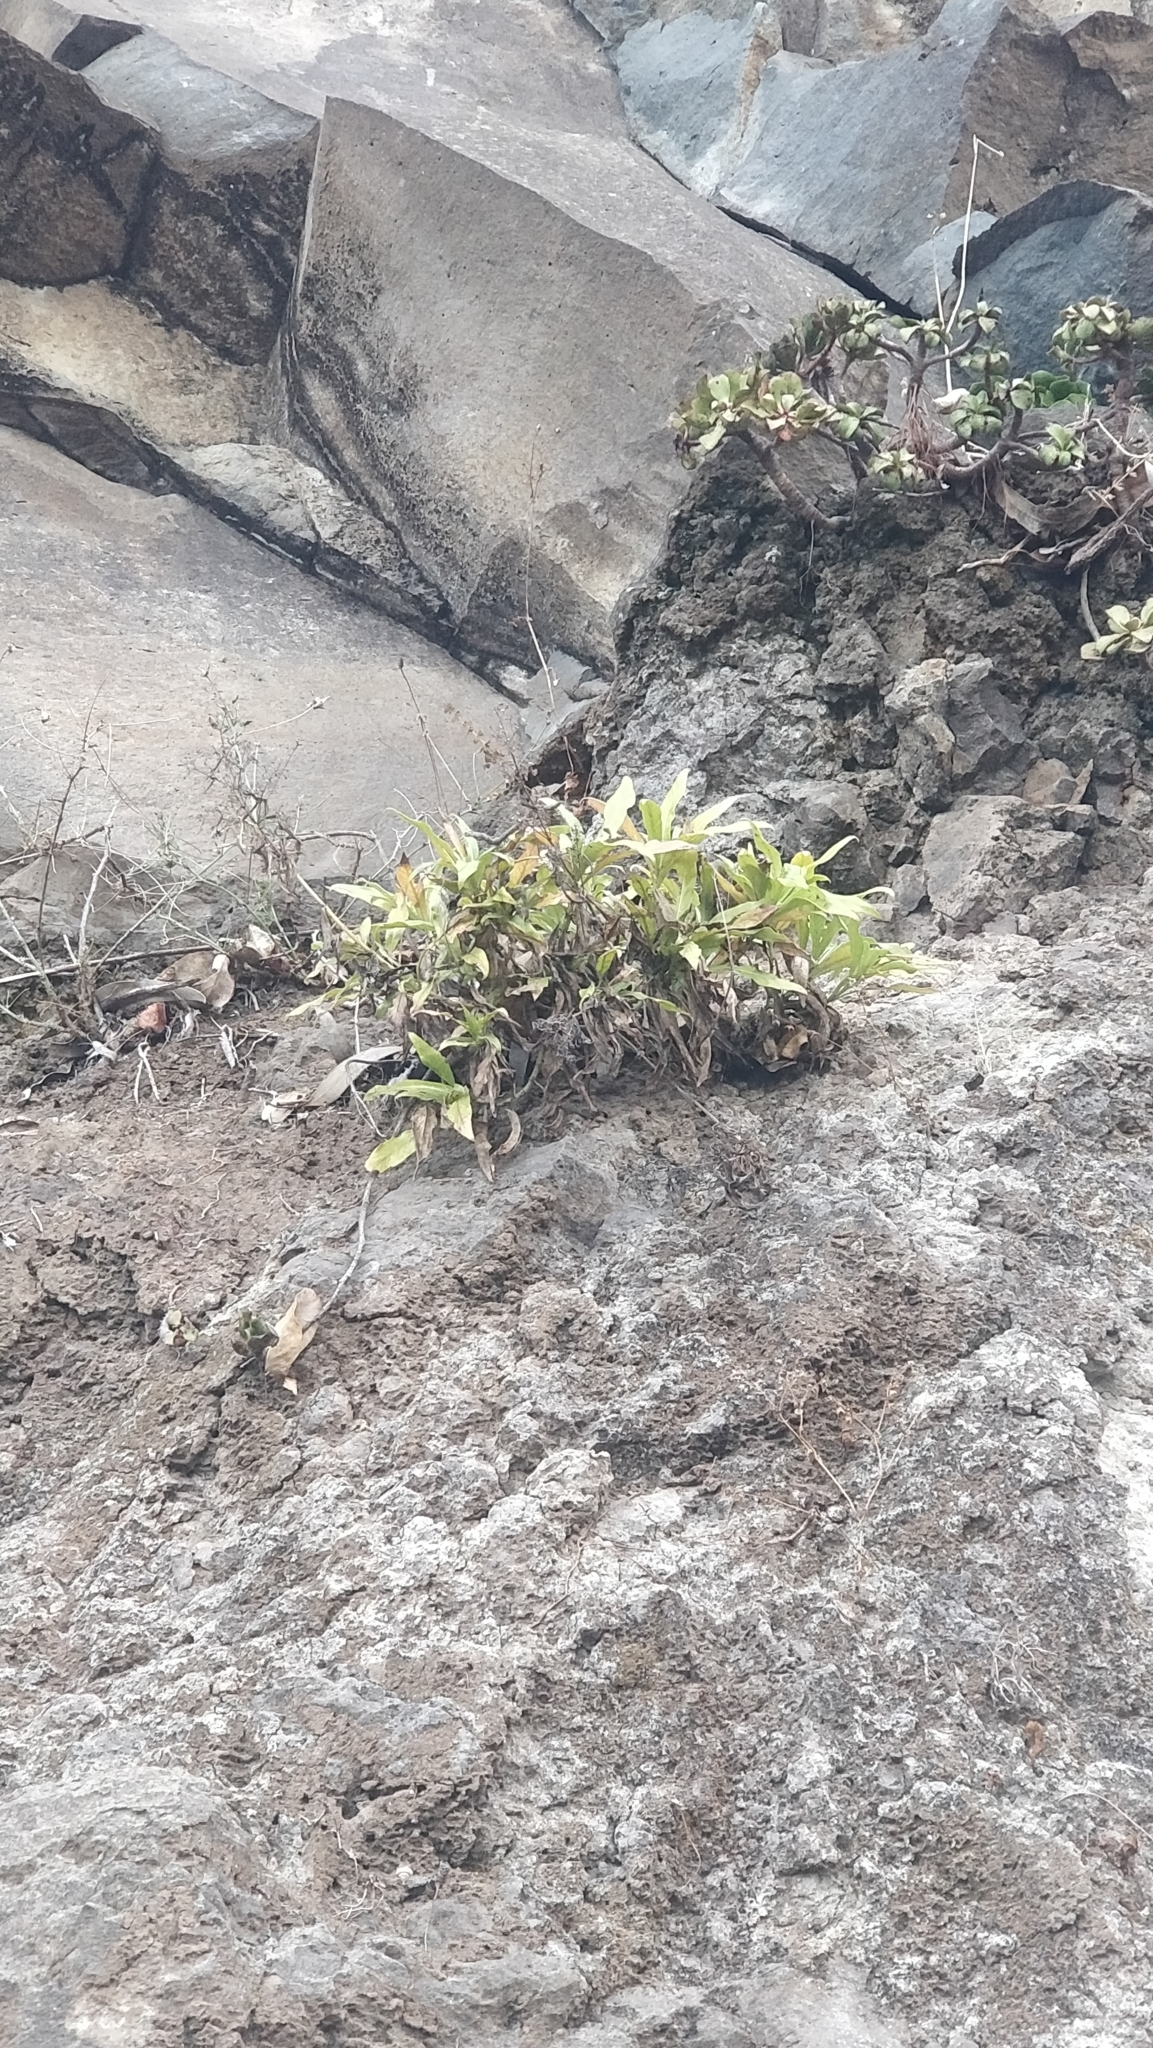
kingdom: Plantae
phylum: Tracheophyta
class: Magnoliopsida
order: Gentianales
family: Rubiaceae
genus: Phyllis
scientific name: Phyllis nobla
